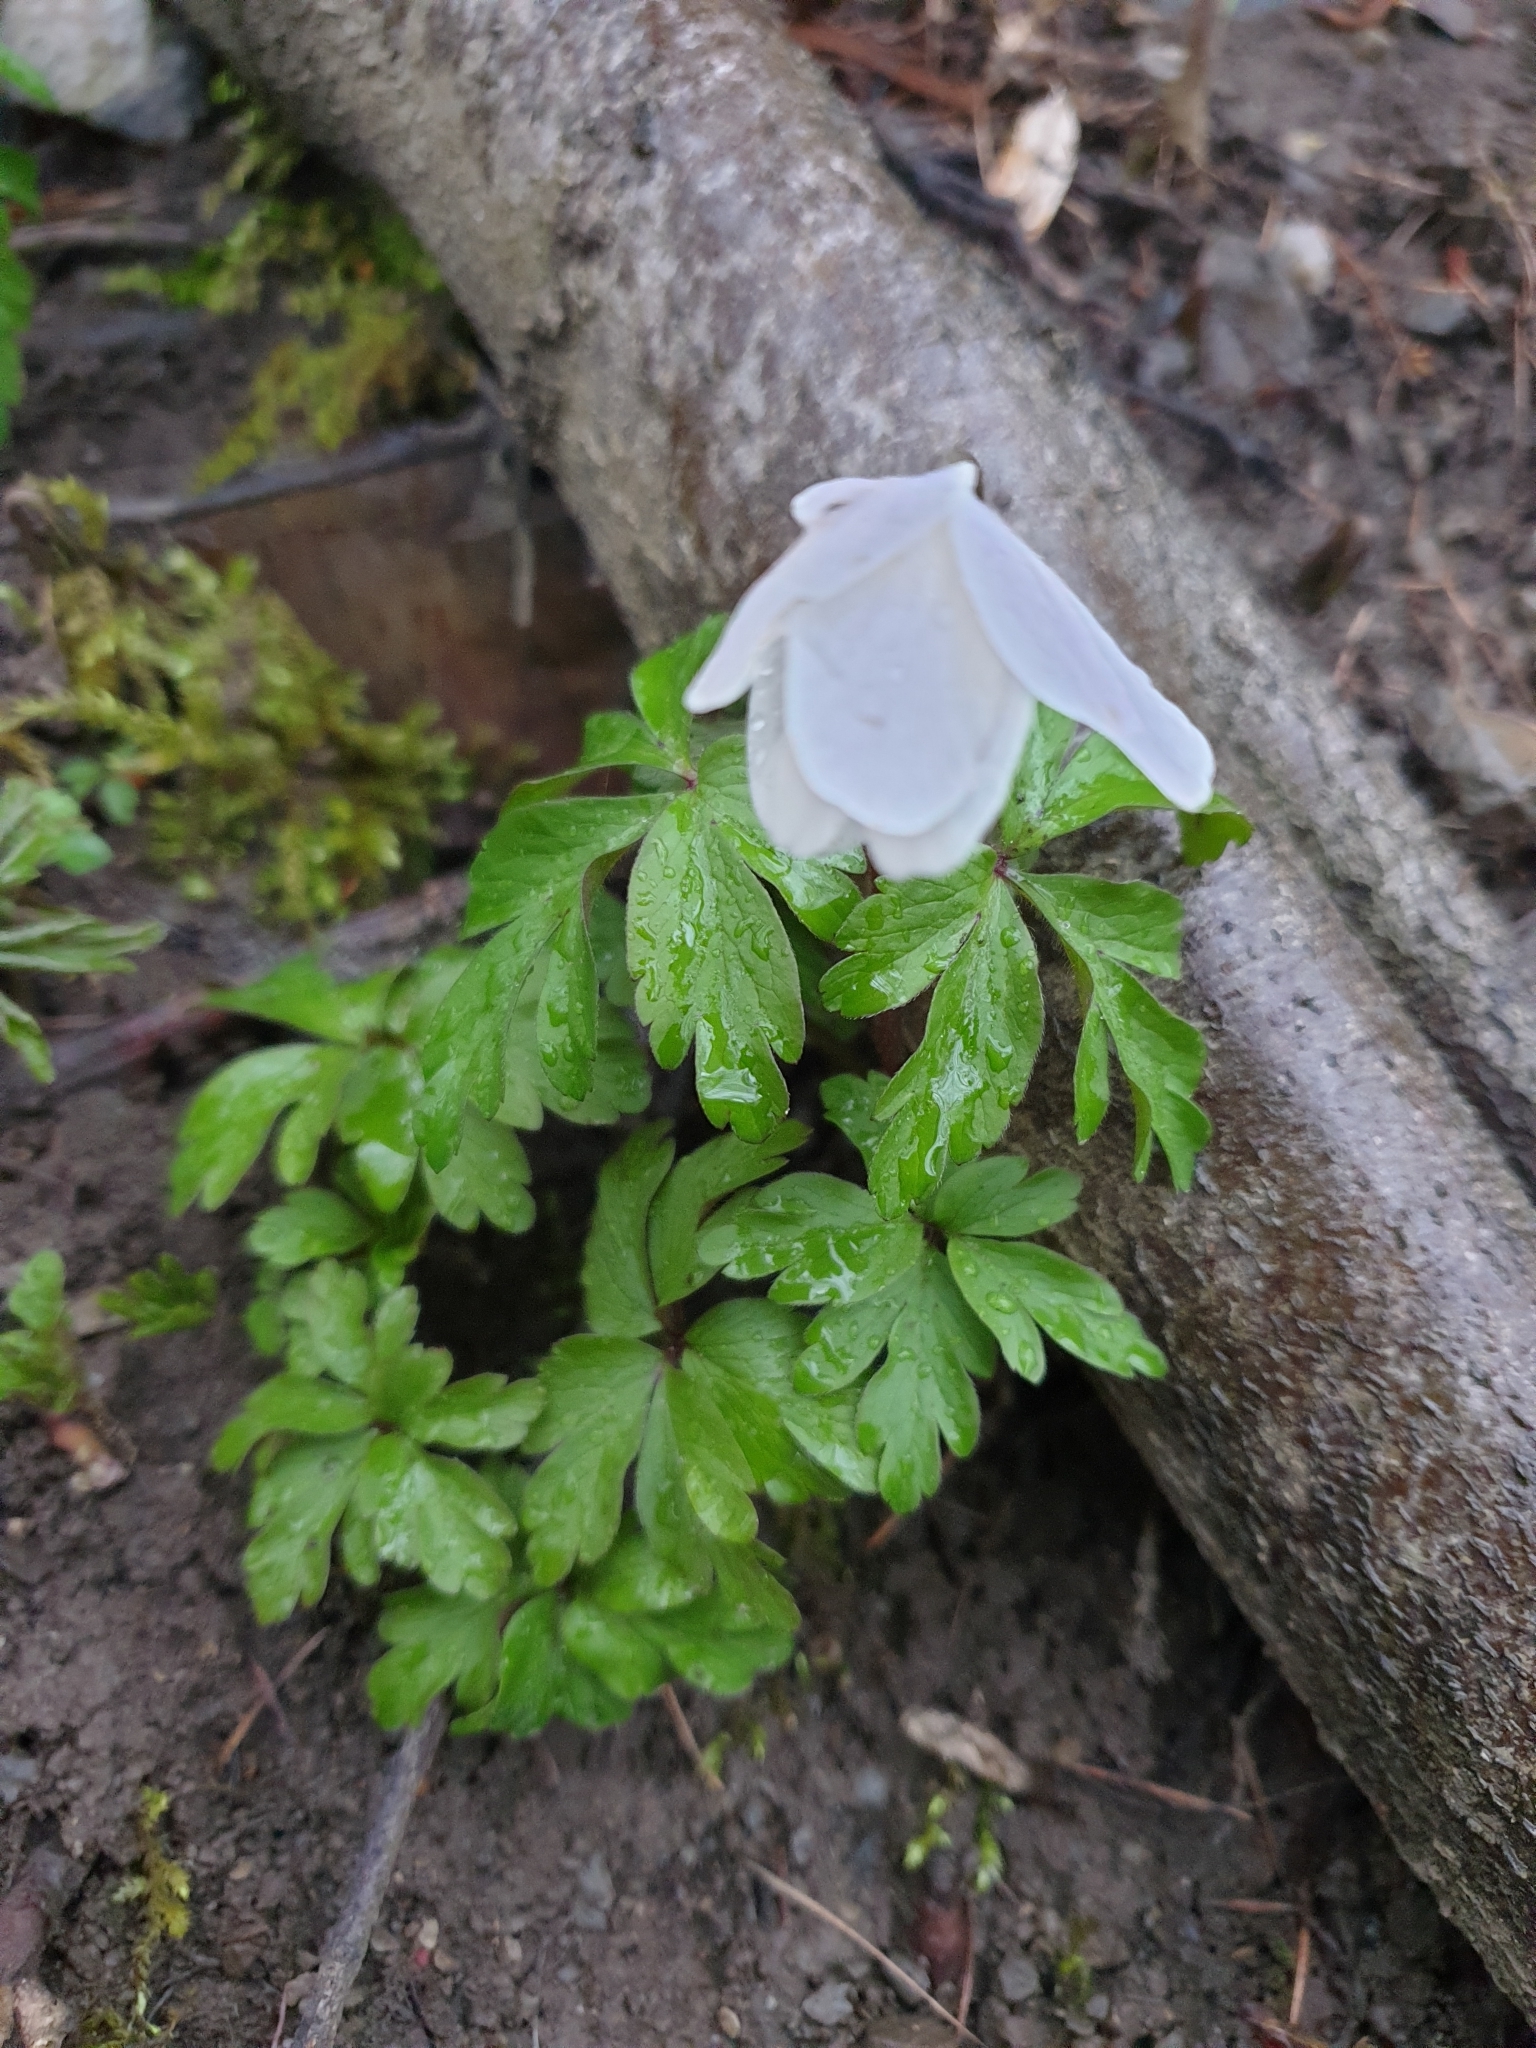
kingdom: Plantae
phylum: Tracheophyta
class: Magnoliopsida
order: Ranunculales
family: Ranunculaceae
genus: Anemone
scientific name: Anemone nemorosa
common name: Wood anemone
